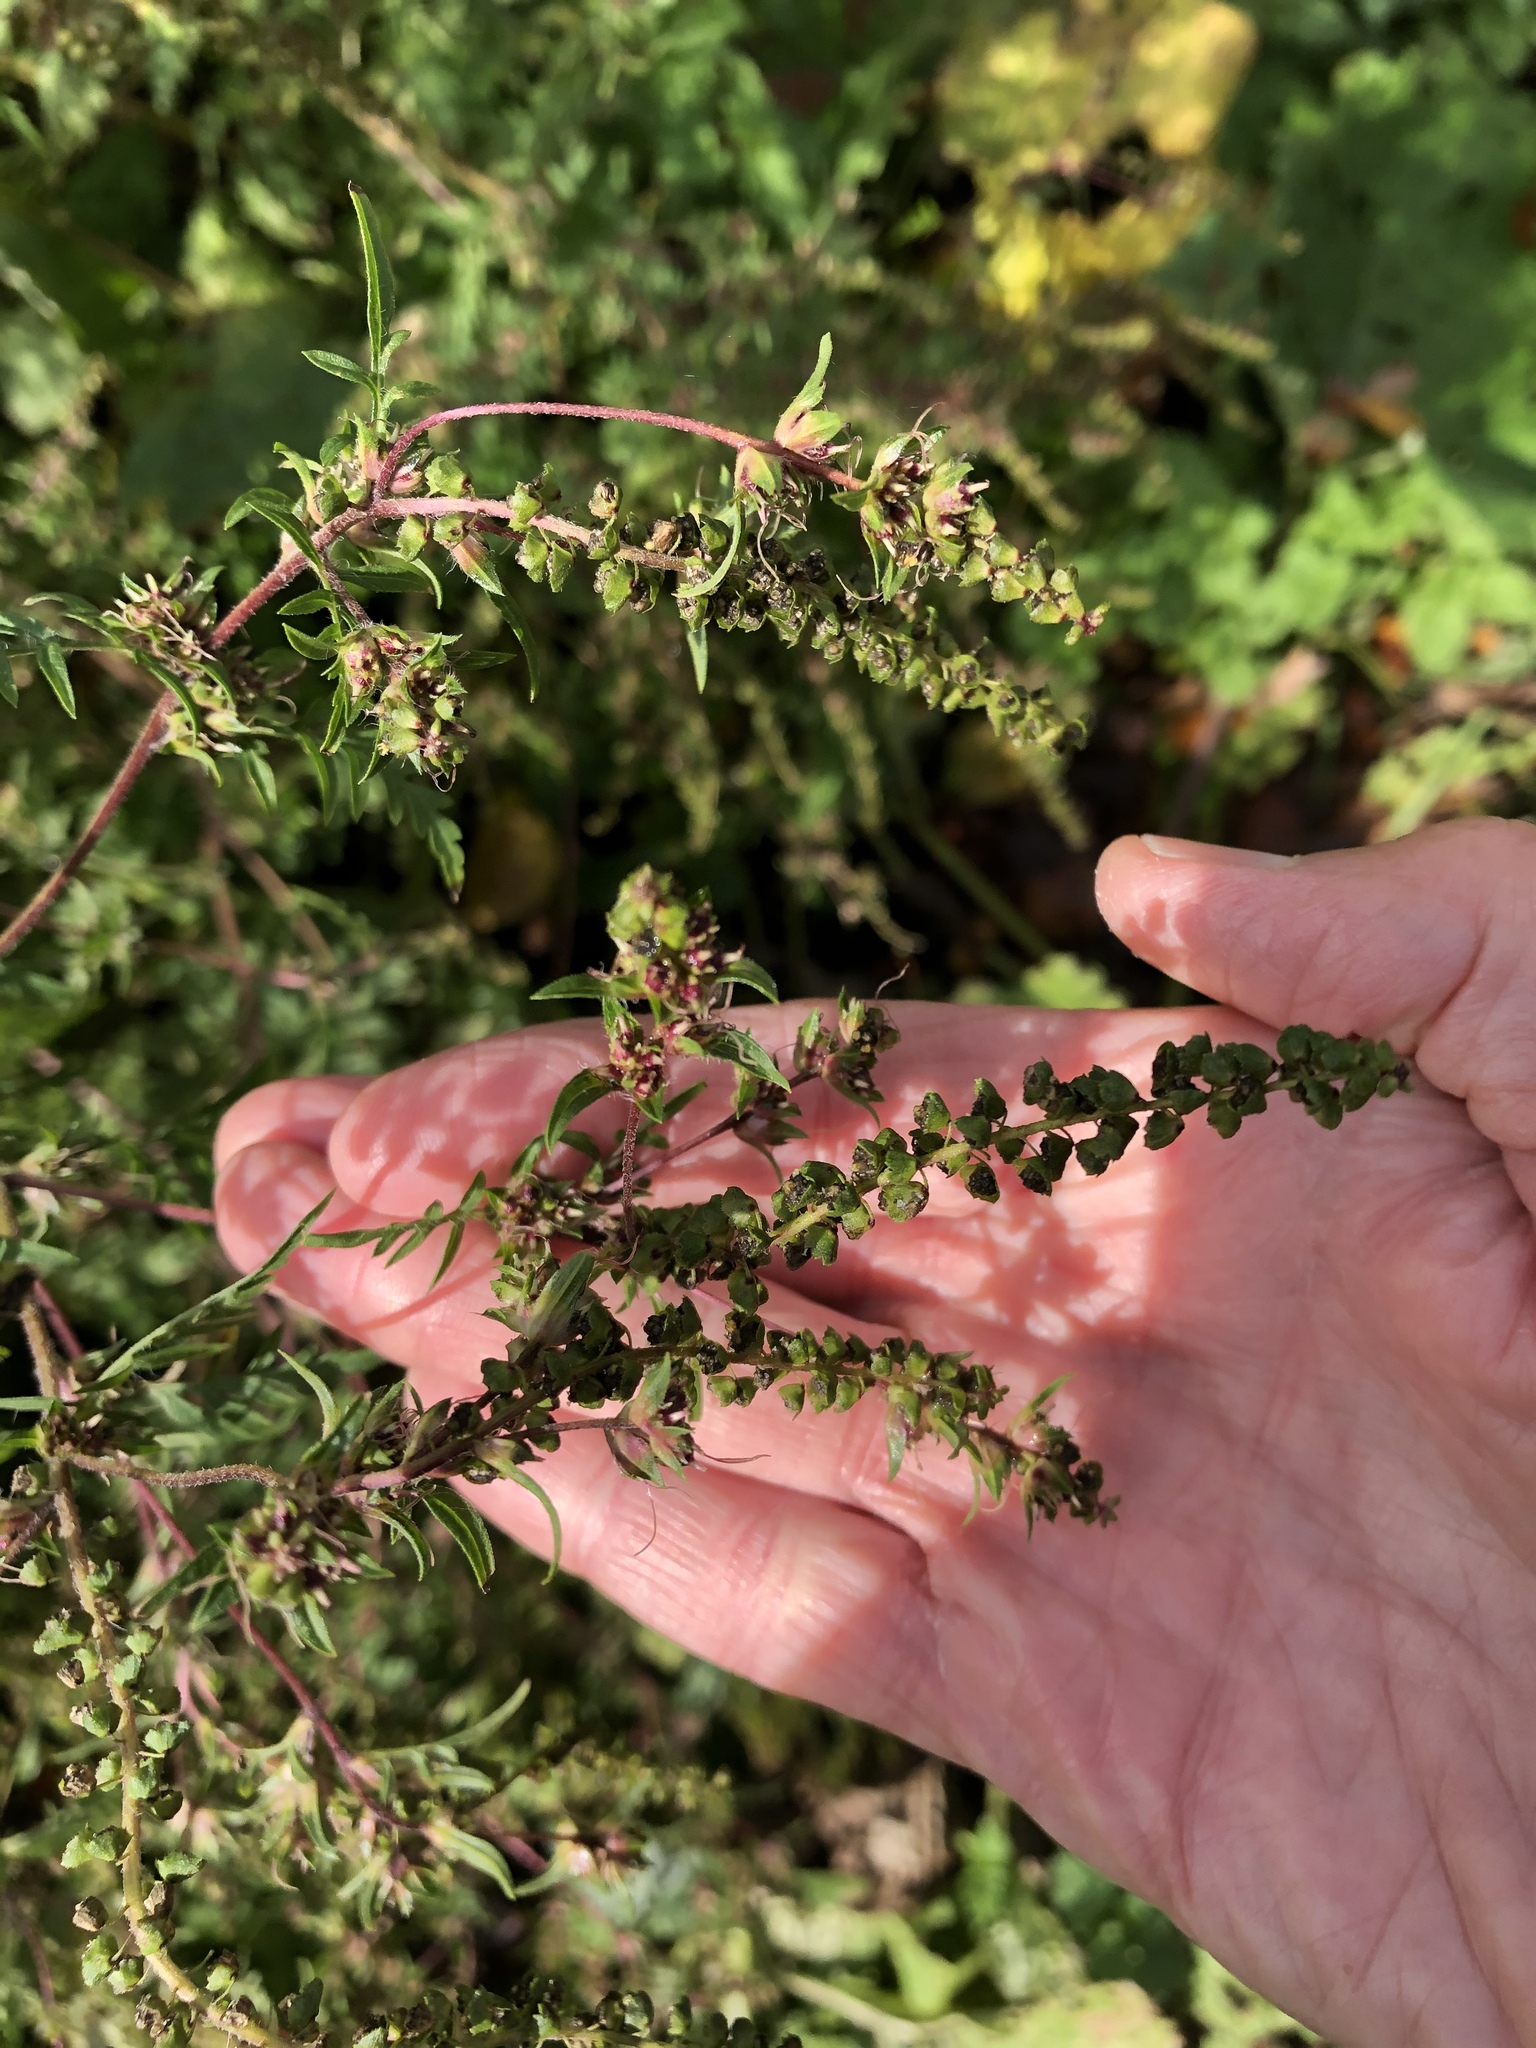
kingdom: Plantae
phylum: Tracheophyta
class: Magnoliopsida
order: Asterales
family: Asteraceae
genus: Ambrosia
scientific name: Ambrosia artemisiifolia
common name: Annual ragweed
